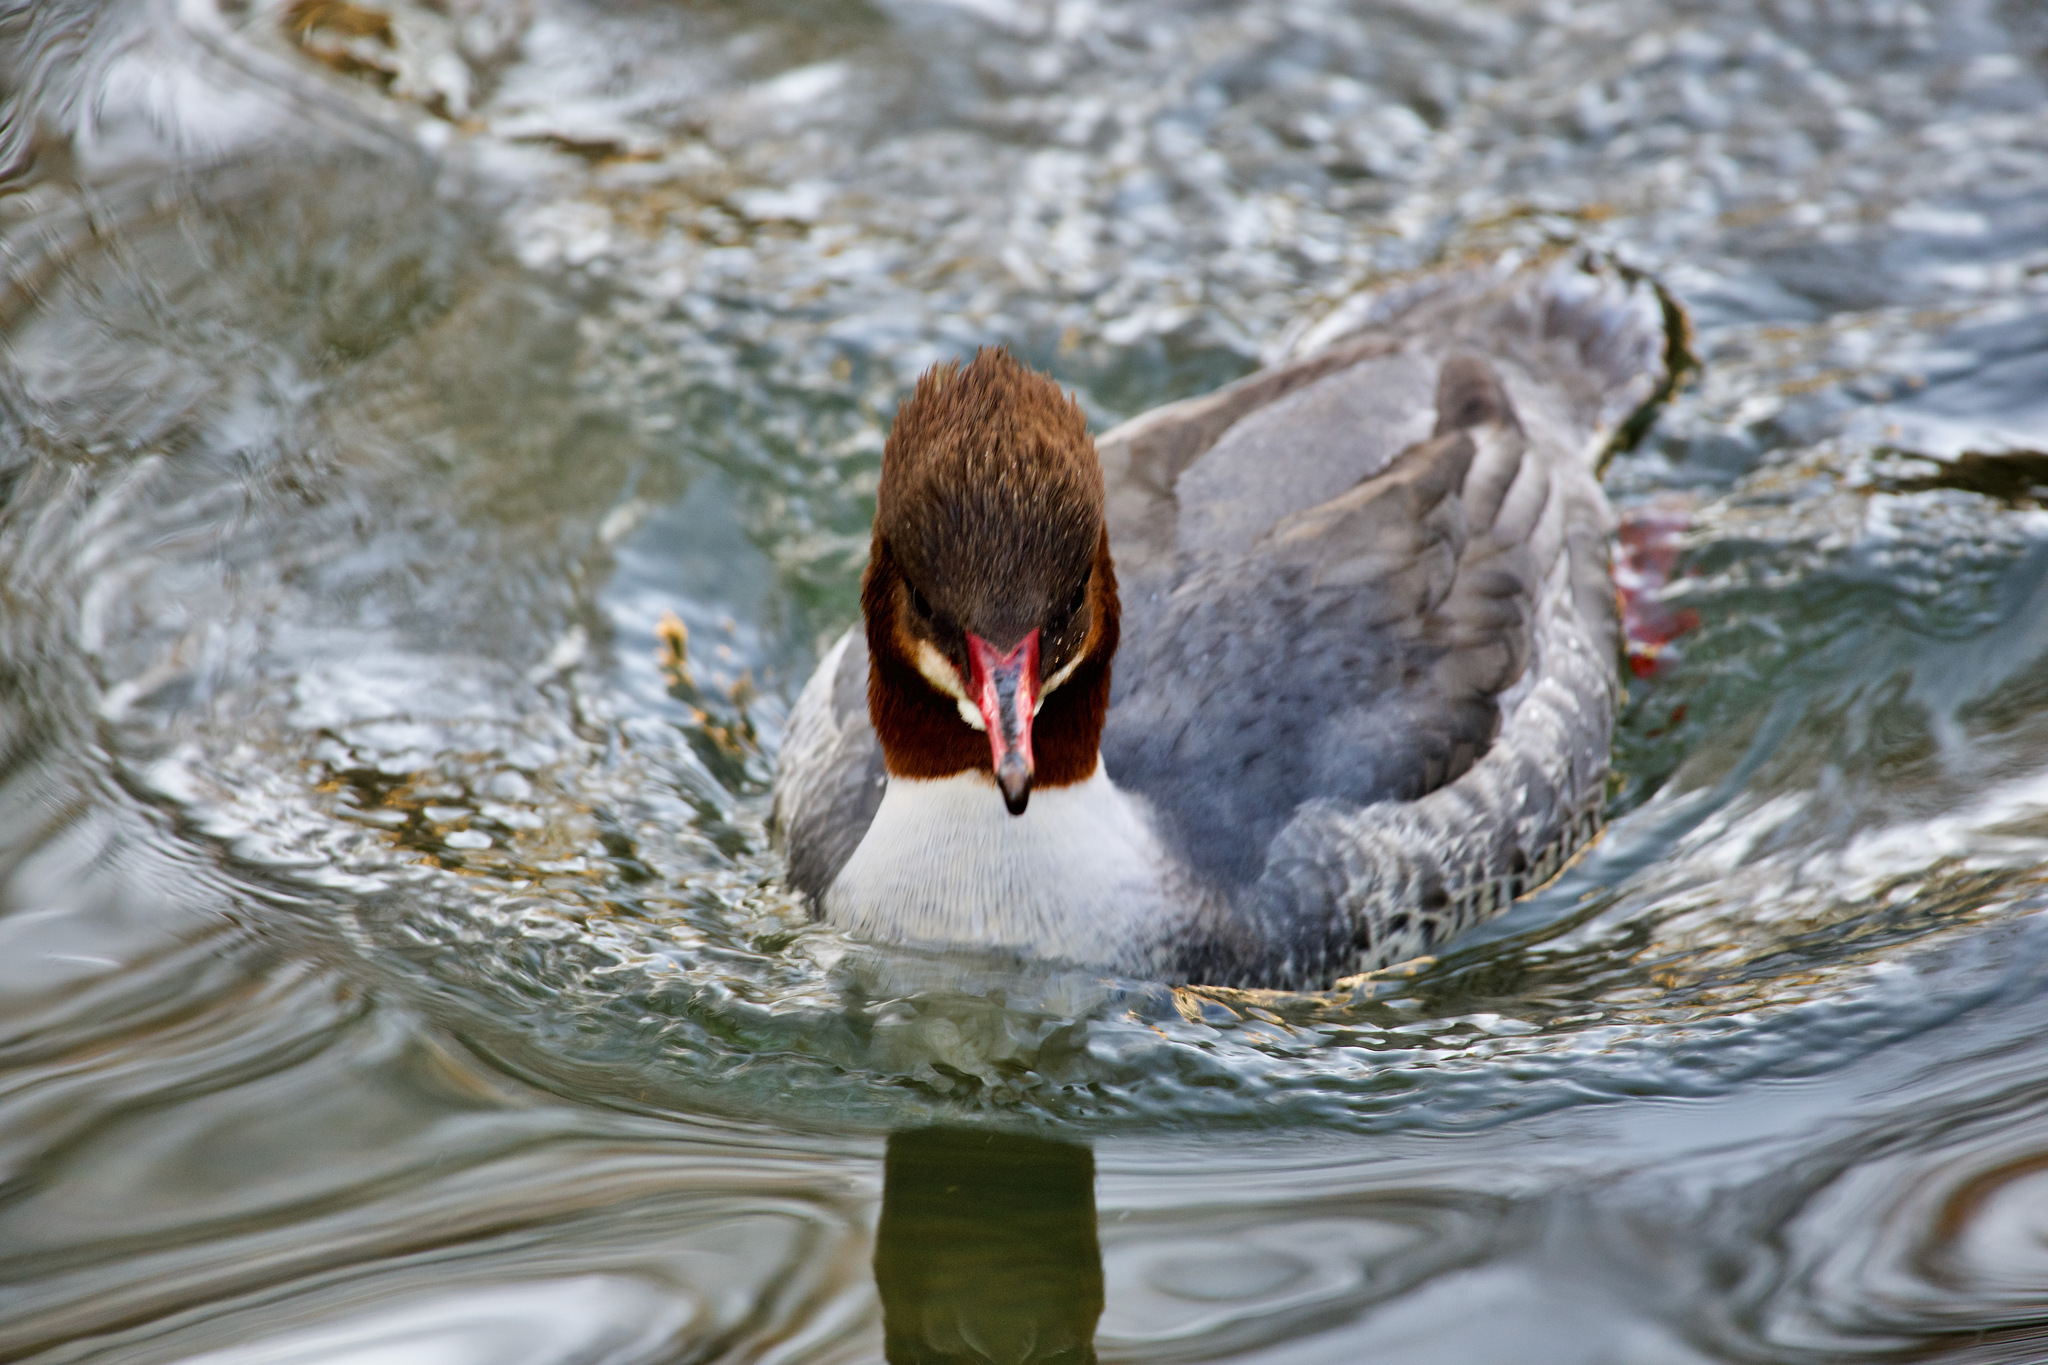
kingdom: Animalia
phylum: Chordata
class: Aves
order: Anseriformes
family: Anatidae
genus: Mergus
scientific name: Mergus merganser
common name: Common merganser
